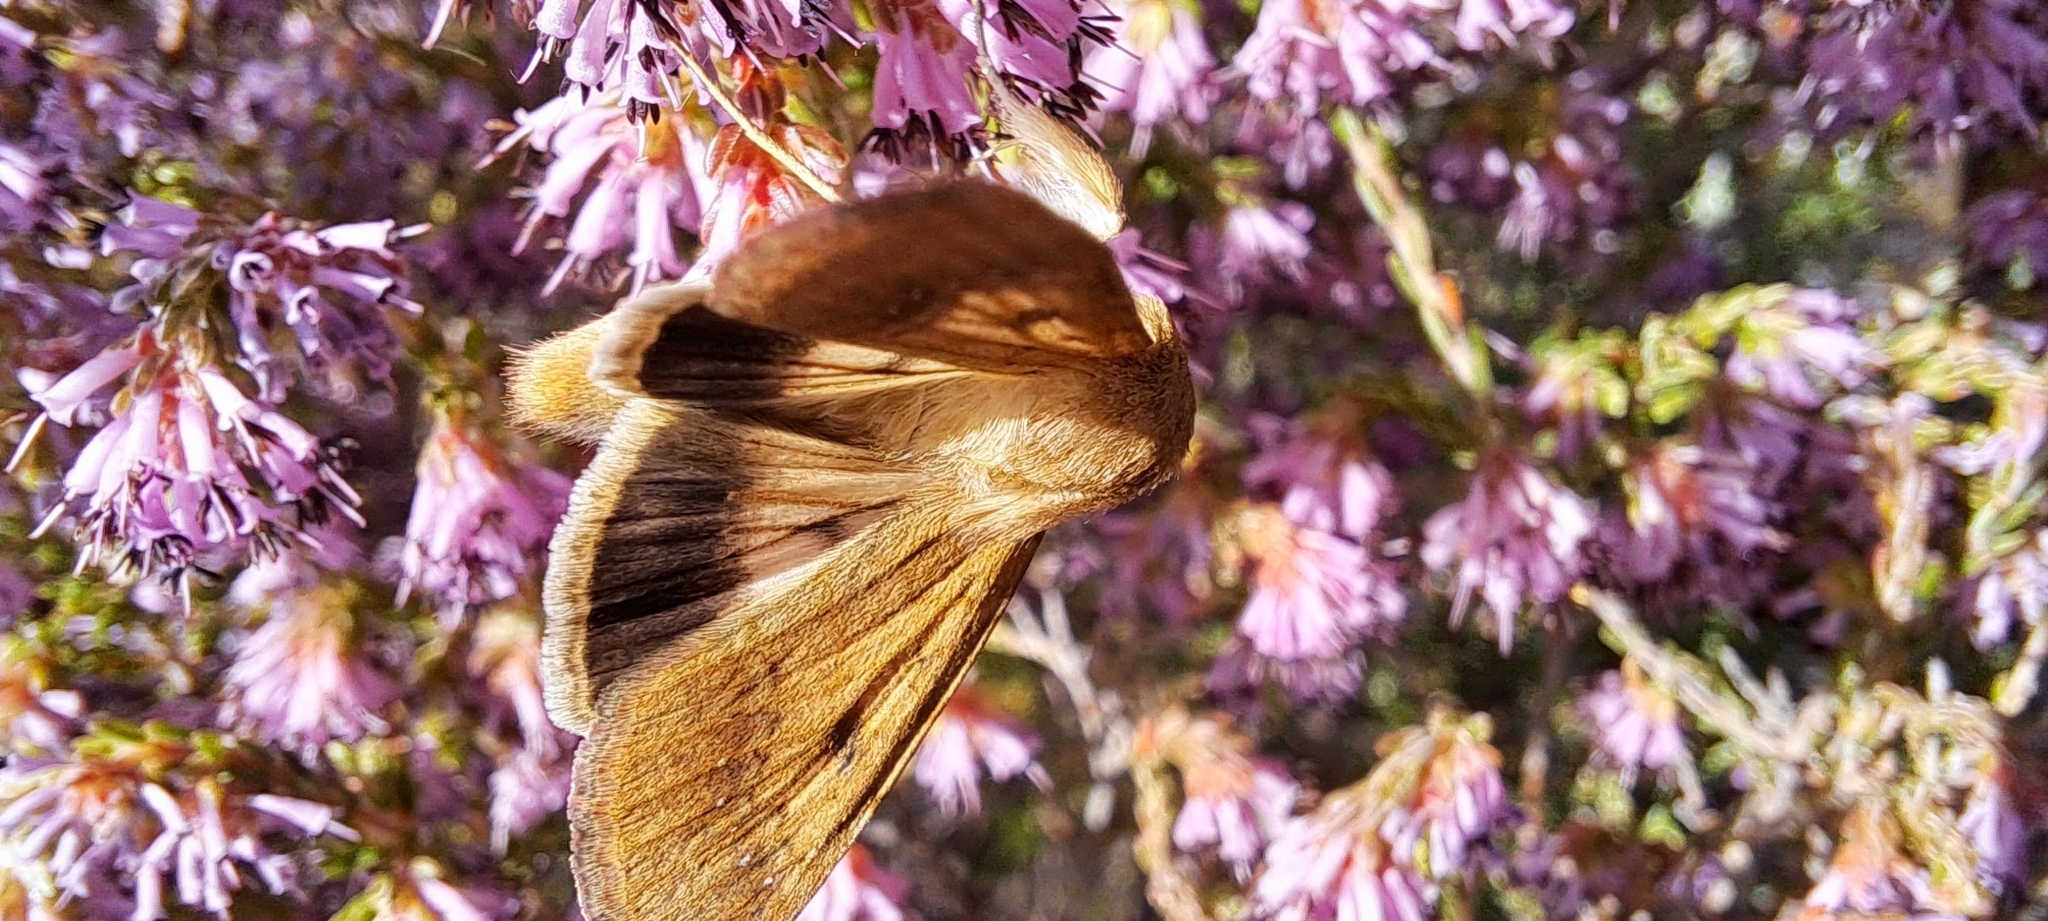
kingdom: Animalia
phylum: Arthropoda
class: Insecta
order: Lepidoptera
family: Noctuidae
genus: Helicoverpa
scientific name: Helicoverpa armigera
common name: Cotton bollworm
